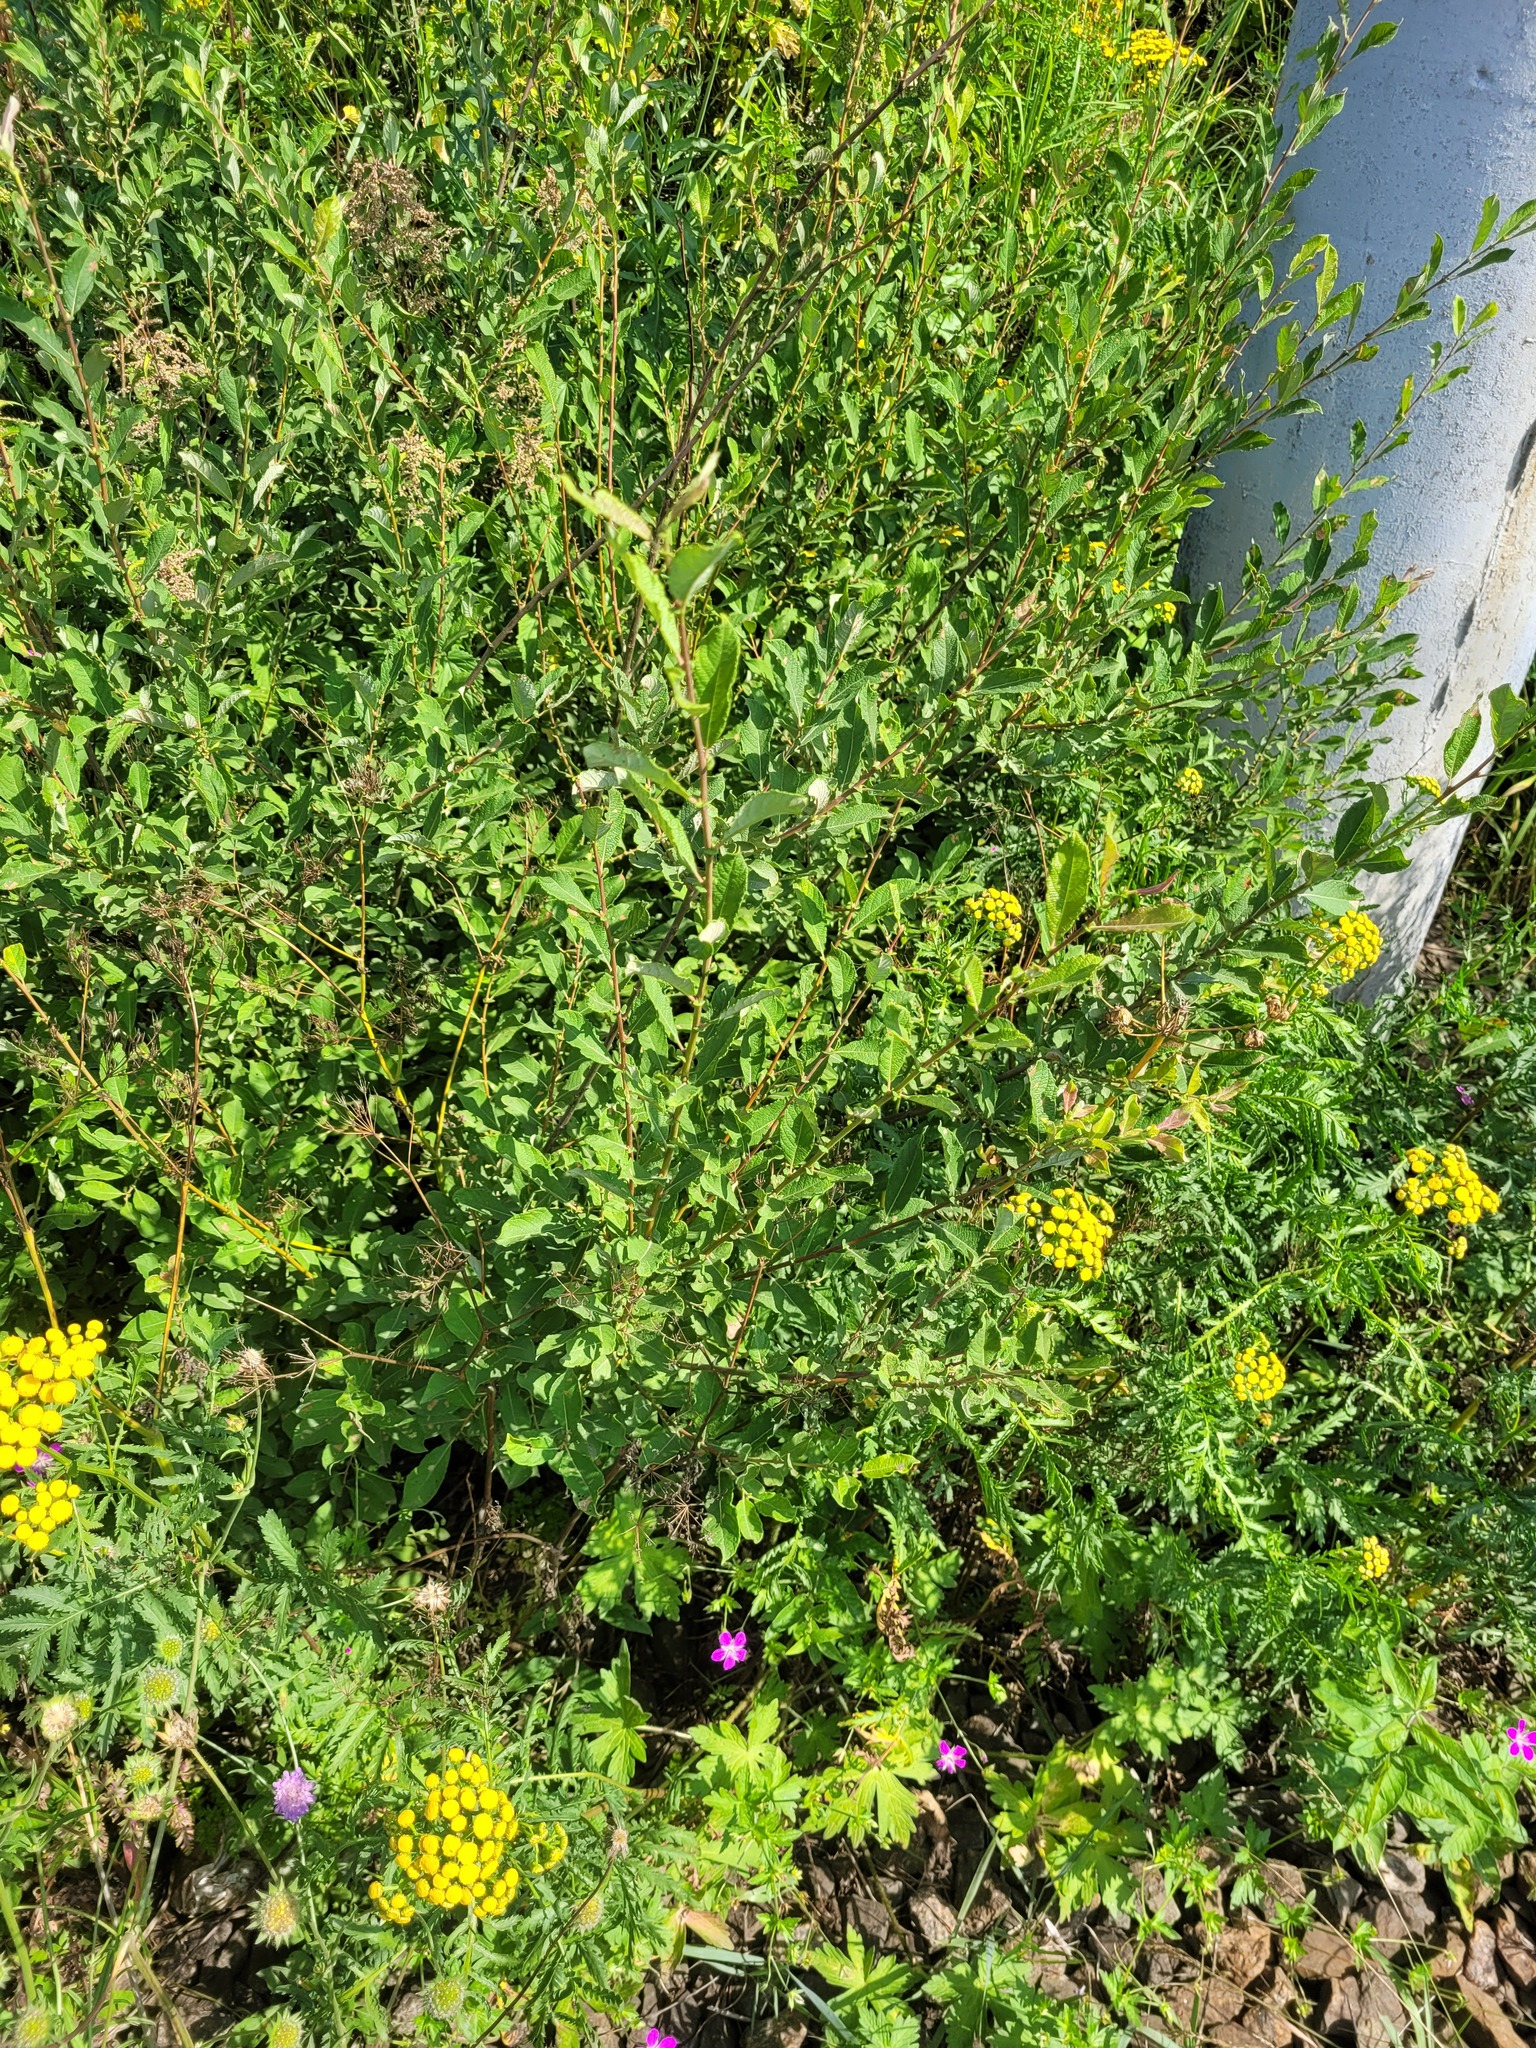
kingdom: Plantae
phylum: Tracheophyta
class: Magnoliopsida
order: Malpighiales
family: Salicaceae
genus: Salix
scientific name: Salix aurita
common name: Eared willow
